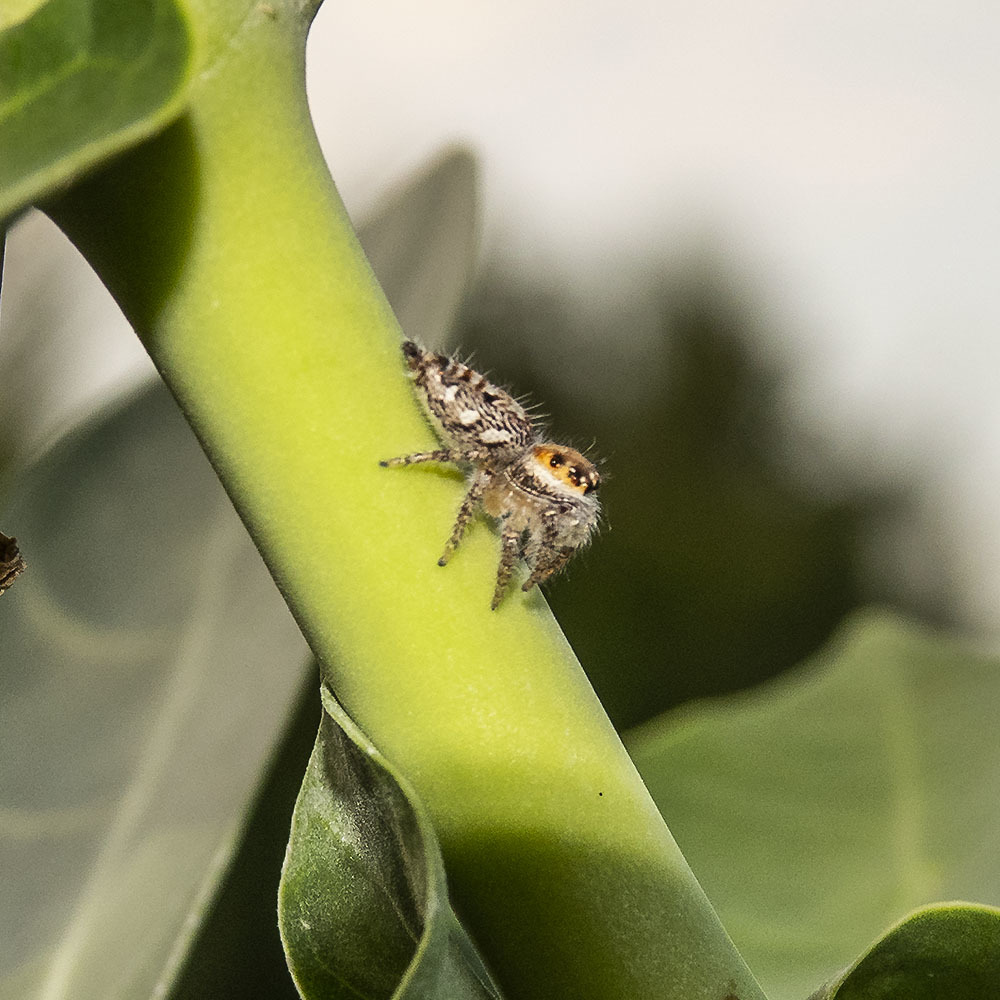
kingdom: Animalia
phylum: Arthropoda
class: Arachnida
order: Araneae
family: Salticidae
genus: Hyllus
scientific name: Hyllus semicupreus
